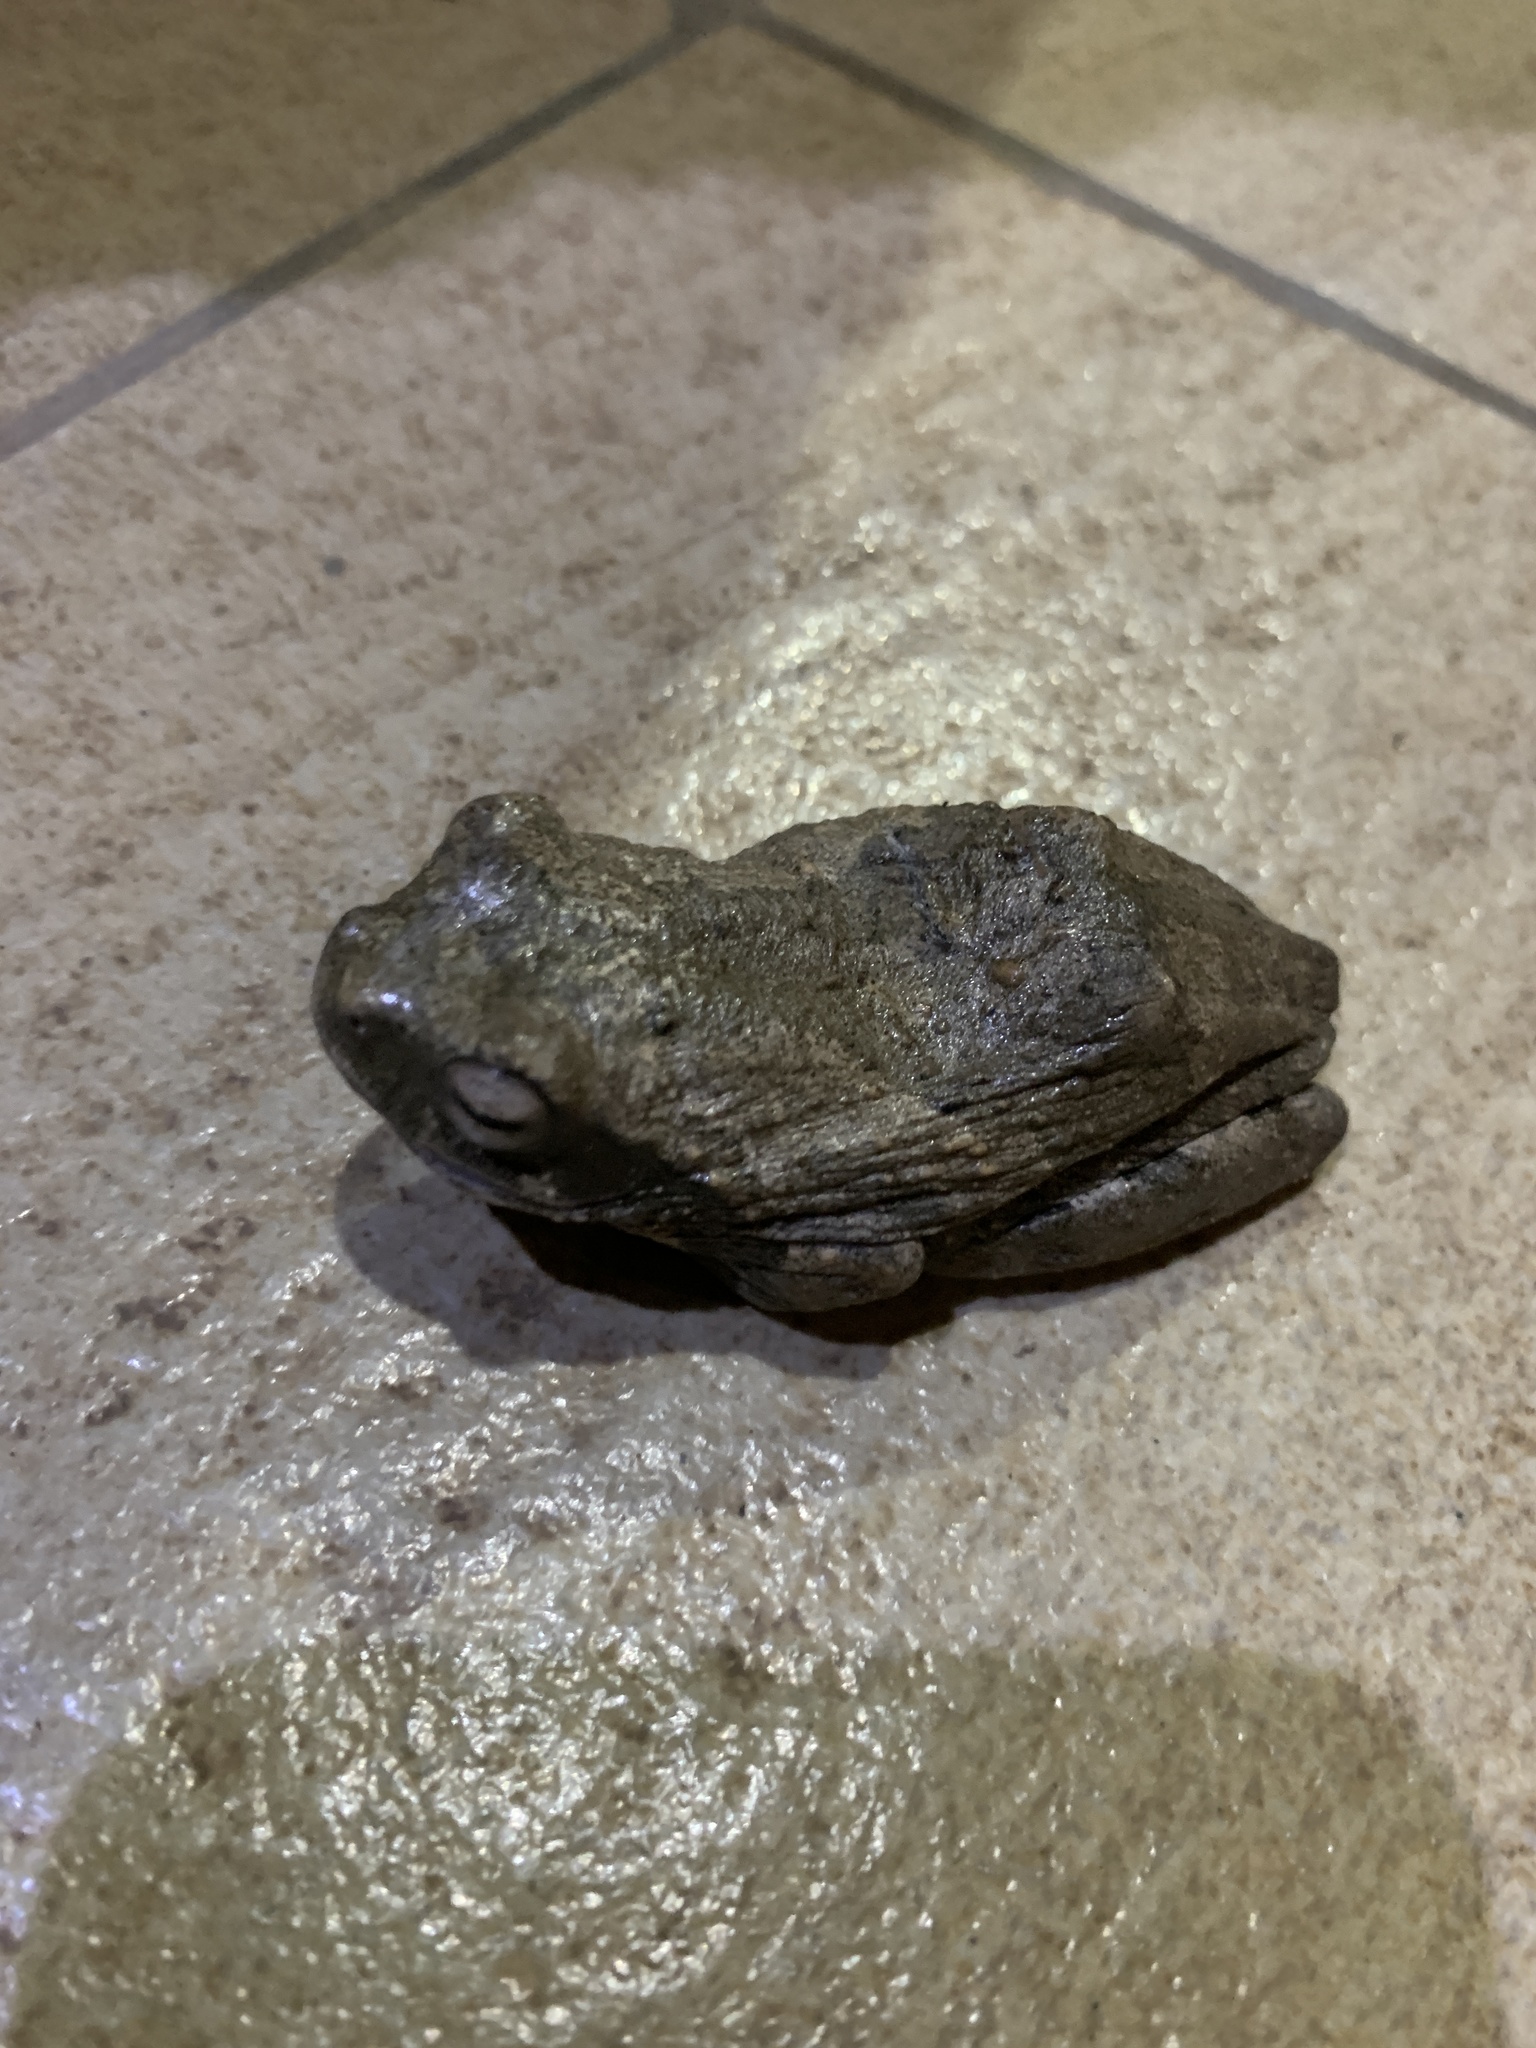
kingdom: Animalia
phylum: Chordata
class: Amphibia
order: Anura
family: Rhacophoridae
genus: Chiromantis
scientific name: Chiromantis xerampelina
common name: African gray treefrog
